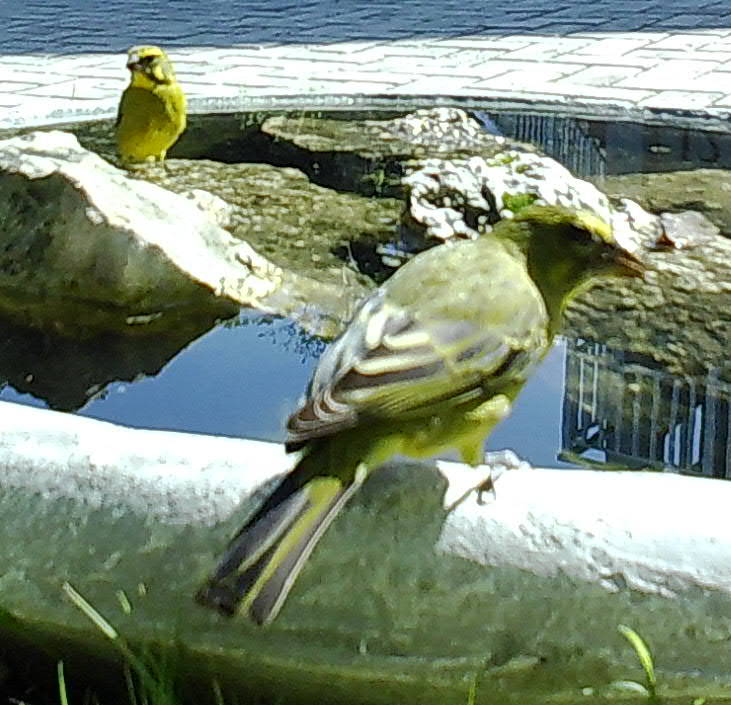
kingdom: Animalia
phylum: Chordata
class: Aves
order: Passeriformes
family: Fringillidae
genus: Crithagra
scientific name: Crithagra sulphurata
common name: Brimstone canary
